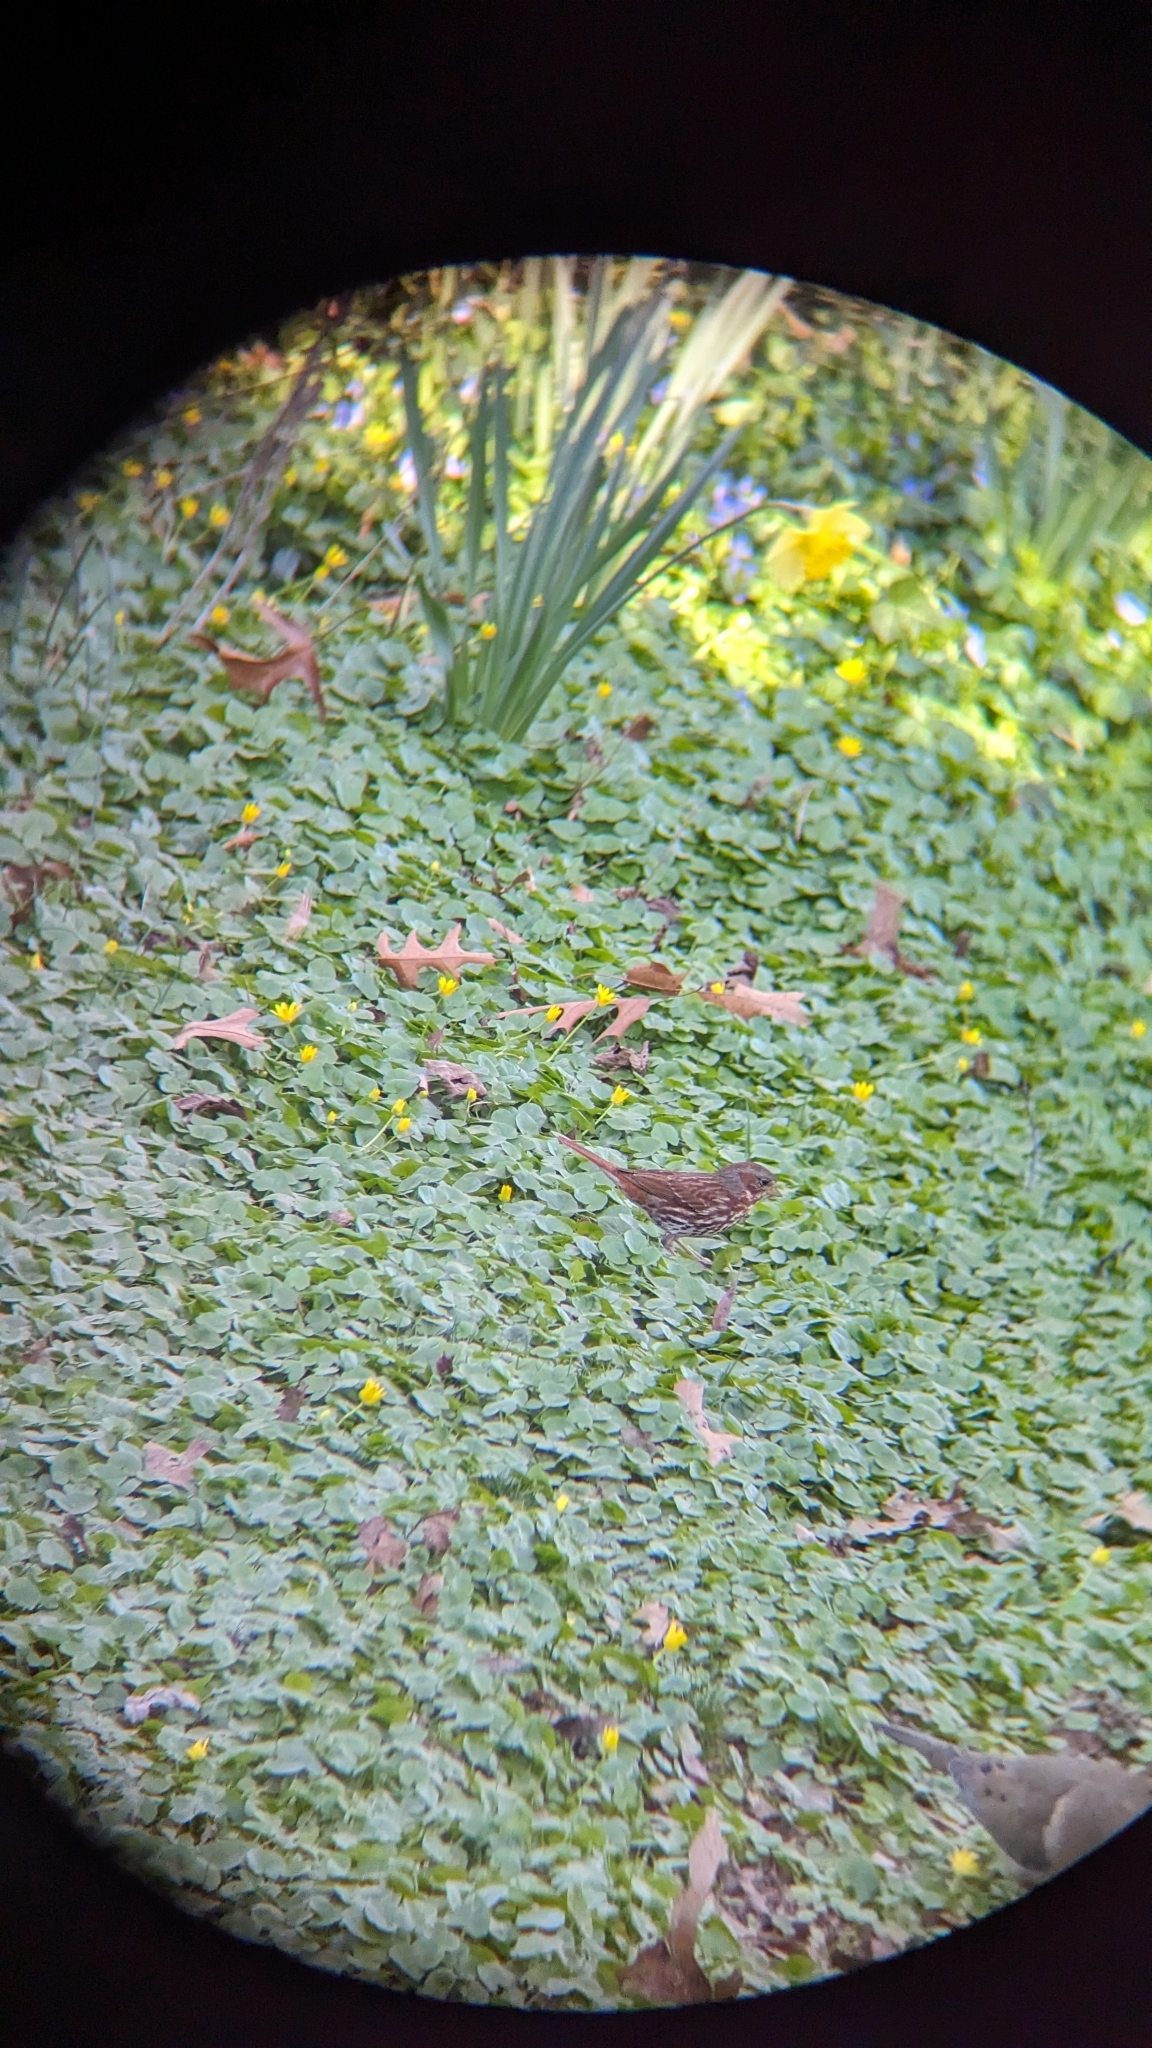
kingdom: Animalia
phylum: Chordata
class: Aves
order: Passeriformes
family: Passerellidae
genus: Passerella
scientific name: Passerella iliaca
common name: Fox sparrow
